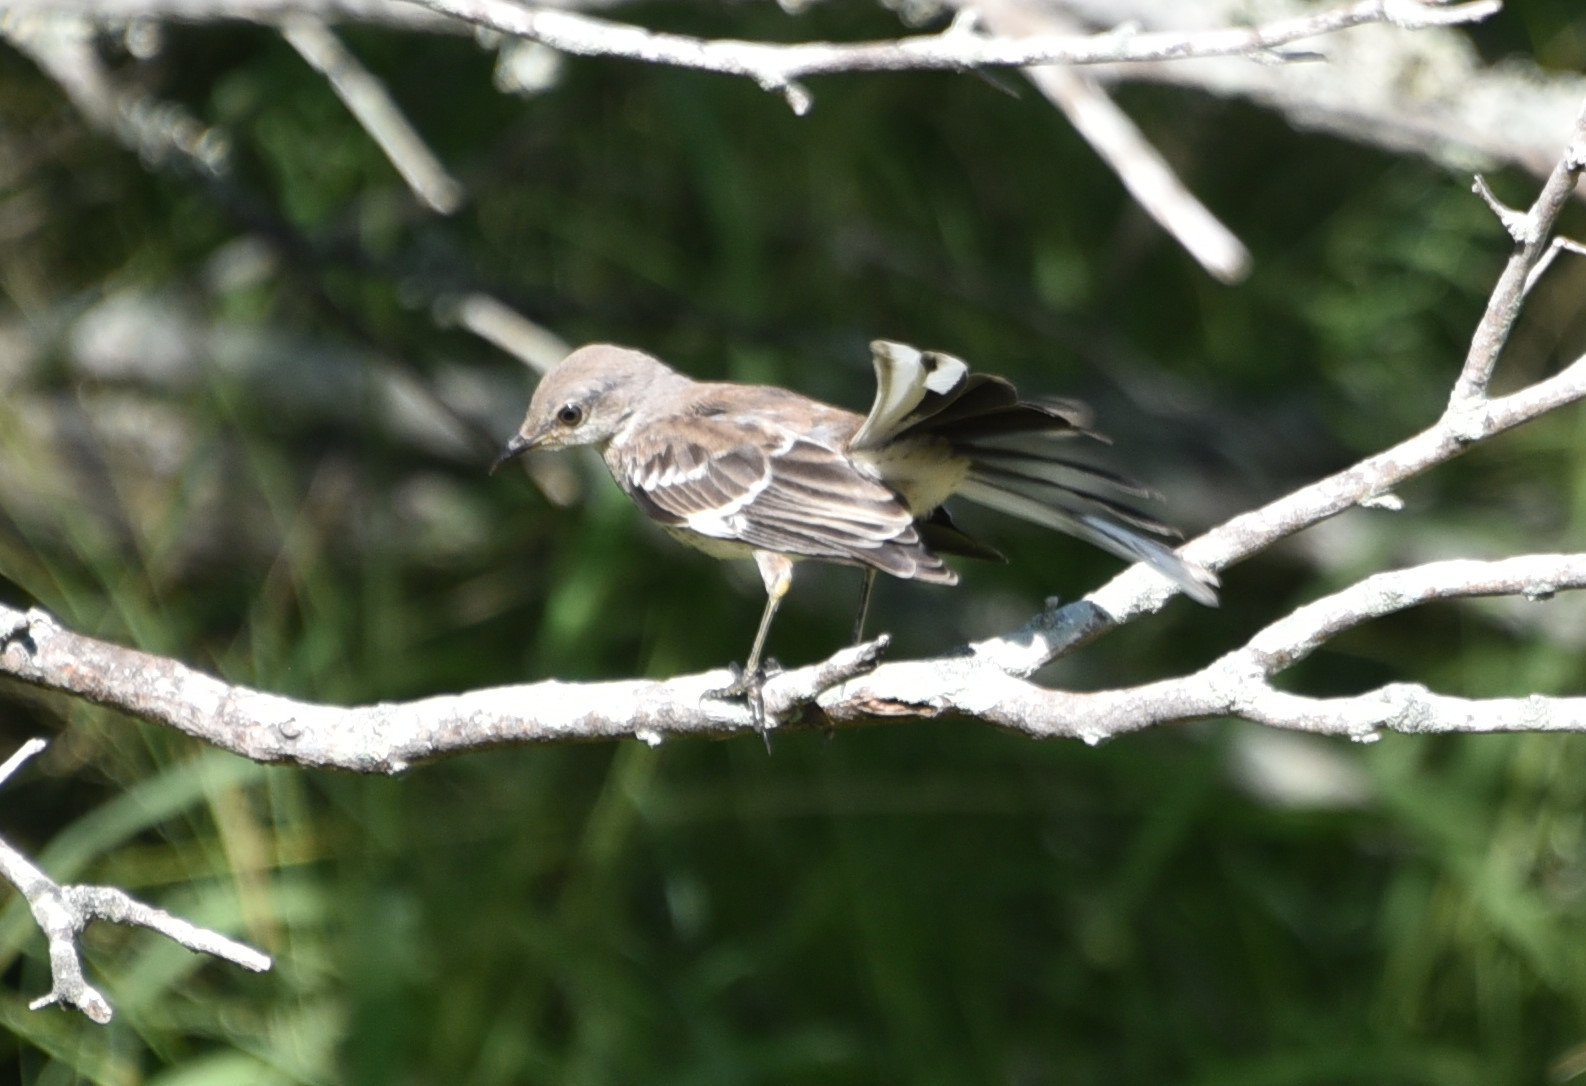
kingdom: Animalia
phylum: Chordata
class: Aves
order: Passeriformes
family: Mimidae
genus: Mimus
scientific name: Mimus polyglottos
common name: Northern mockingbird
